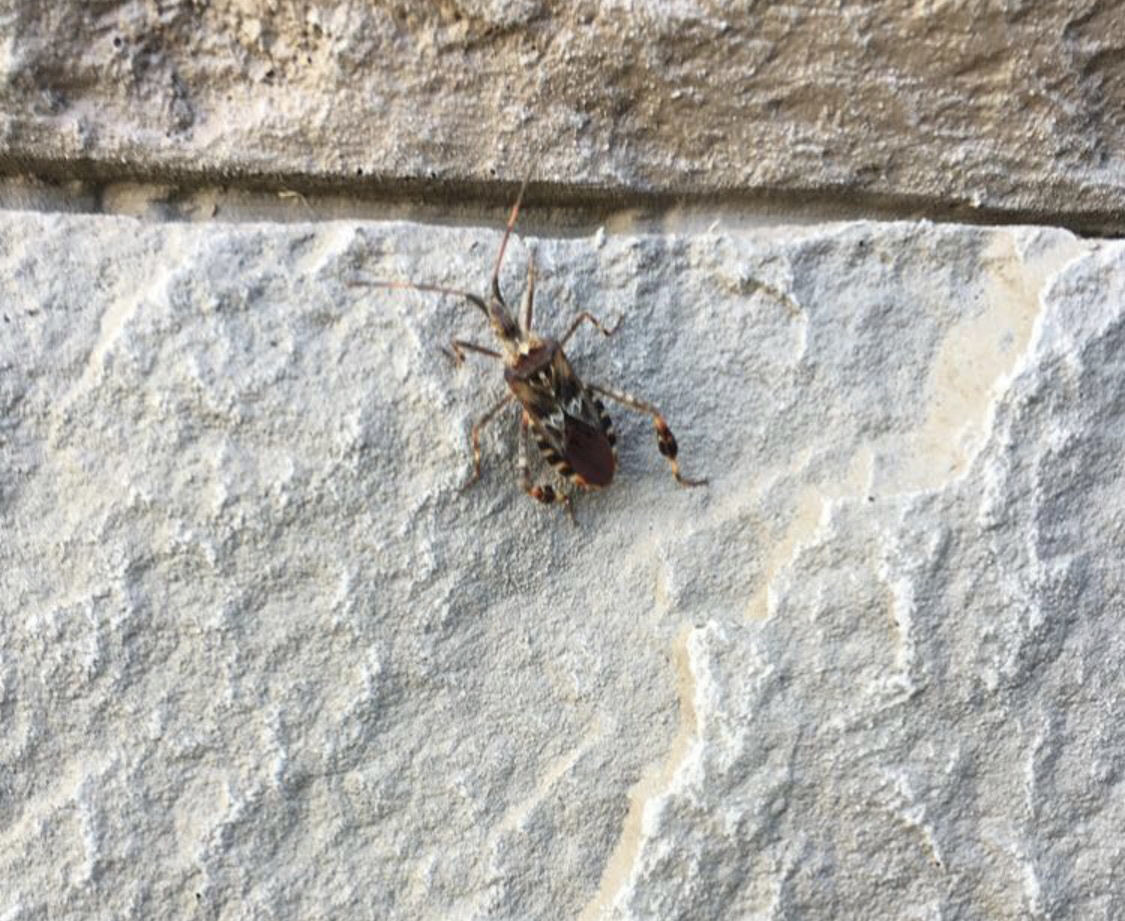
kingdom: Animalia
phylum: Arthropoda
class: Insecta
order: Hemiptera
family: Coreidae
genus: Leptoglossus
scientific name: Leptoglossus occidentalis
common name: Western conifer-seed bug
